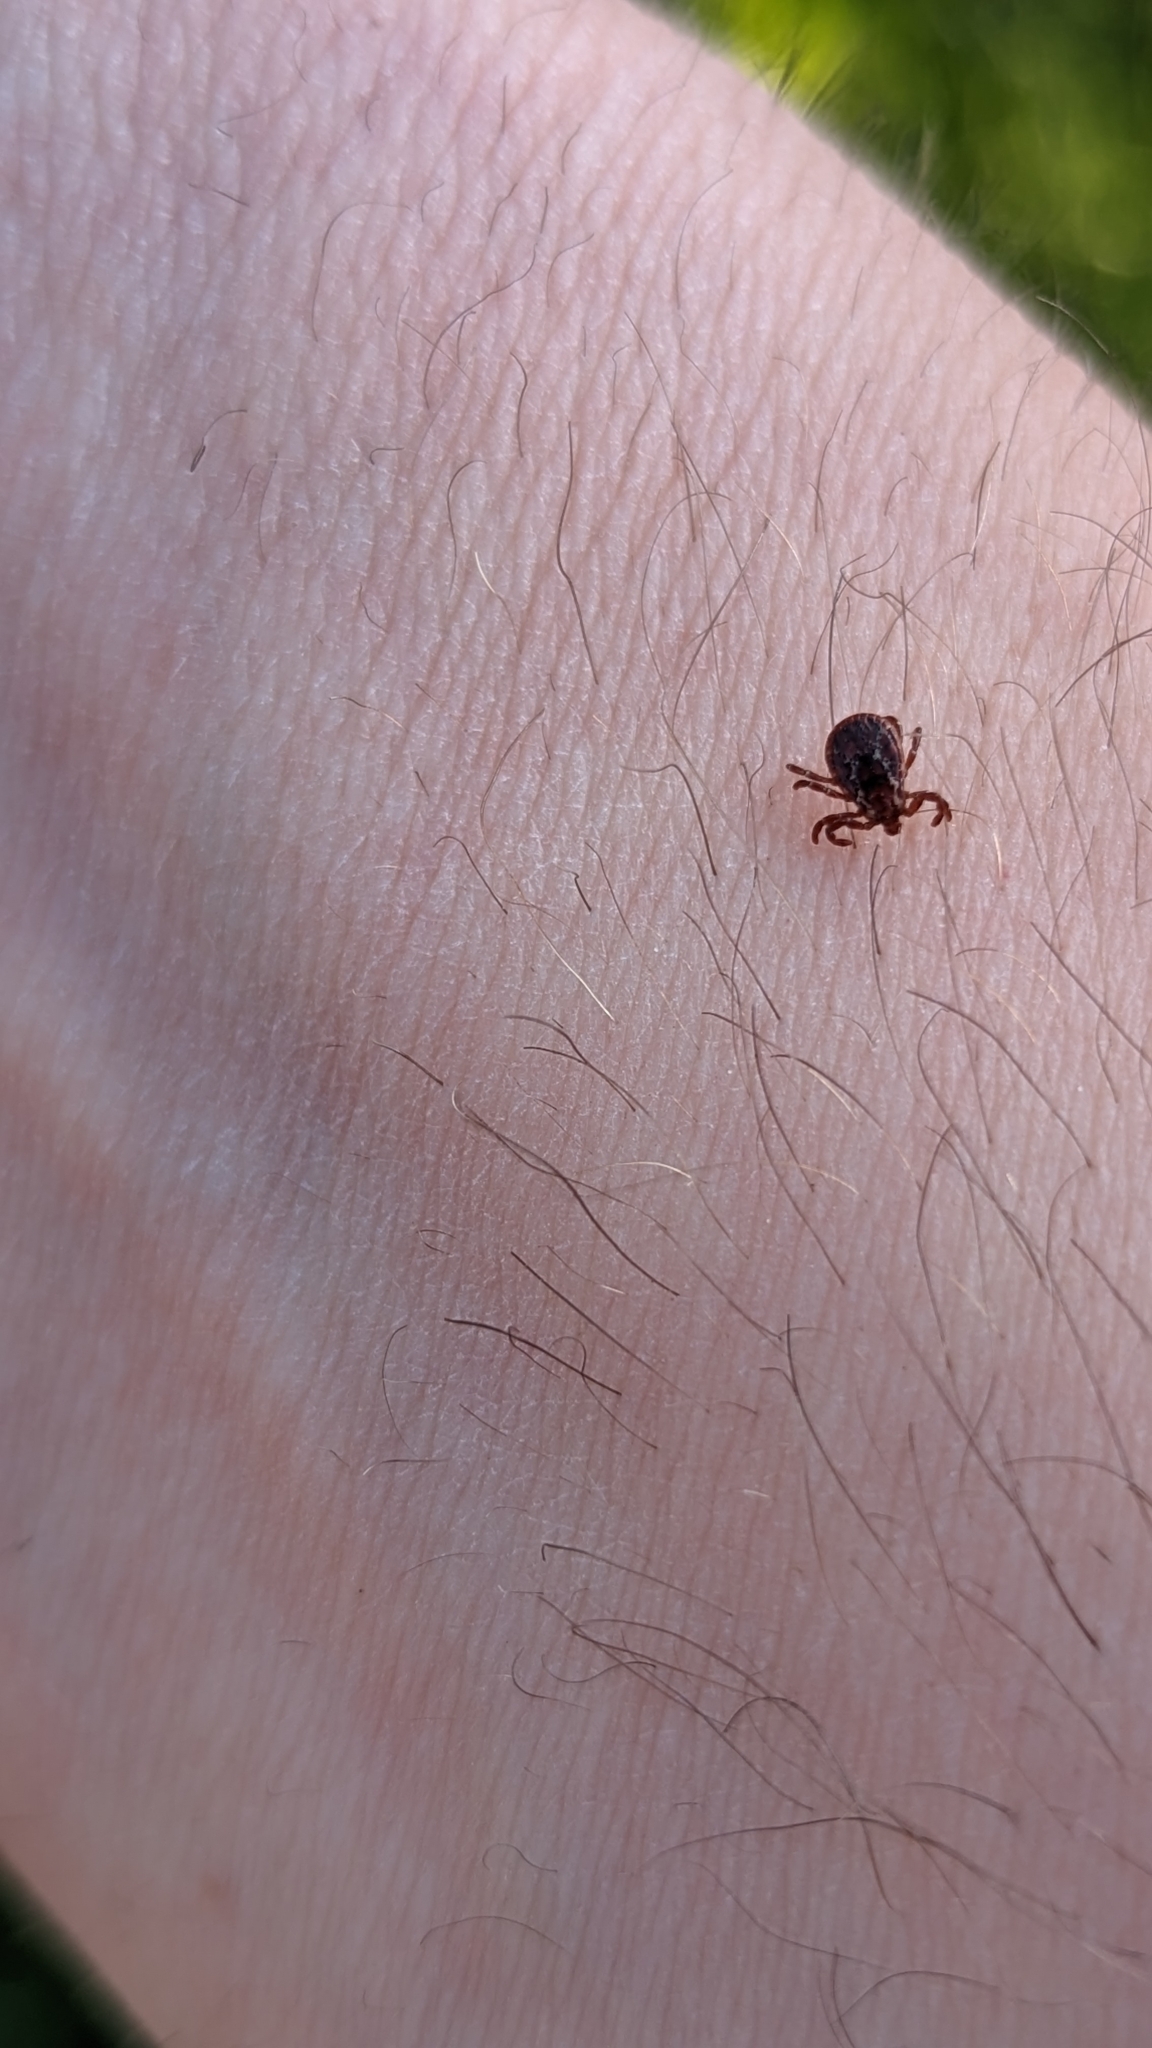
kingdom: Animalia
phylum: Arthropoda
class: Arachnida
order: Ixodida
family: Ixodidae
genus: Dermacentor
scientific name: Dermacentor variabilis
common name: American dog tick
